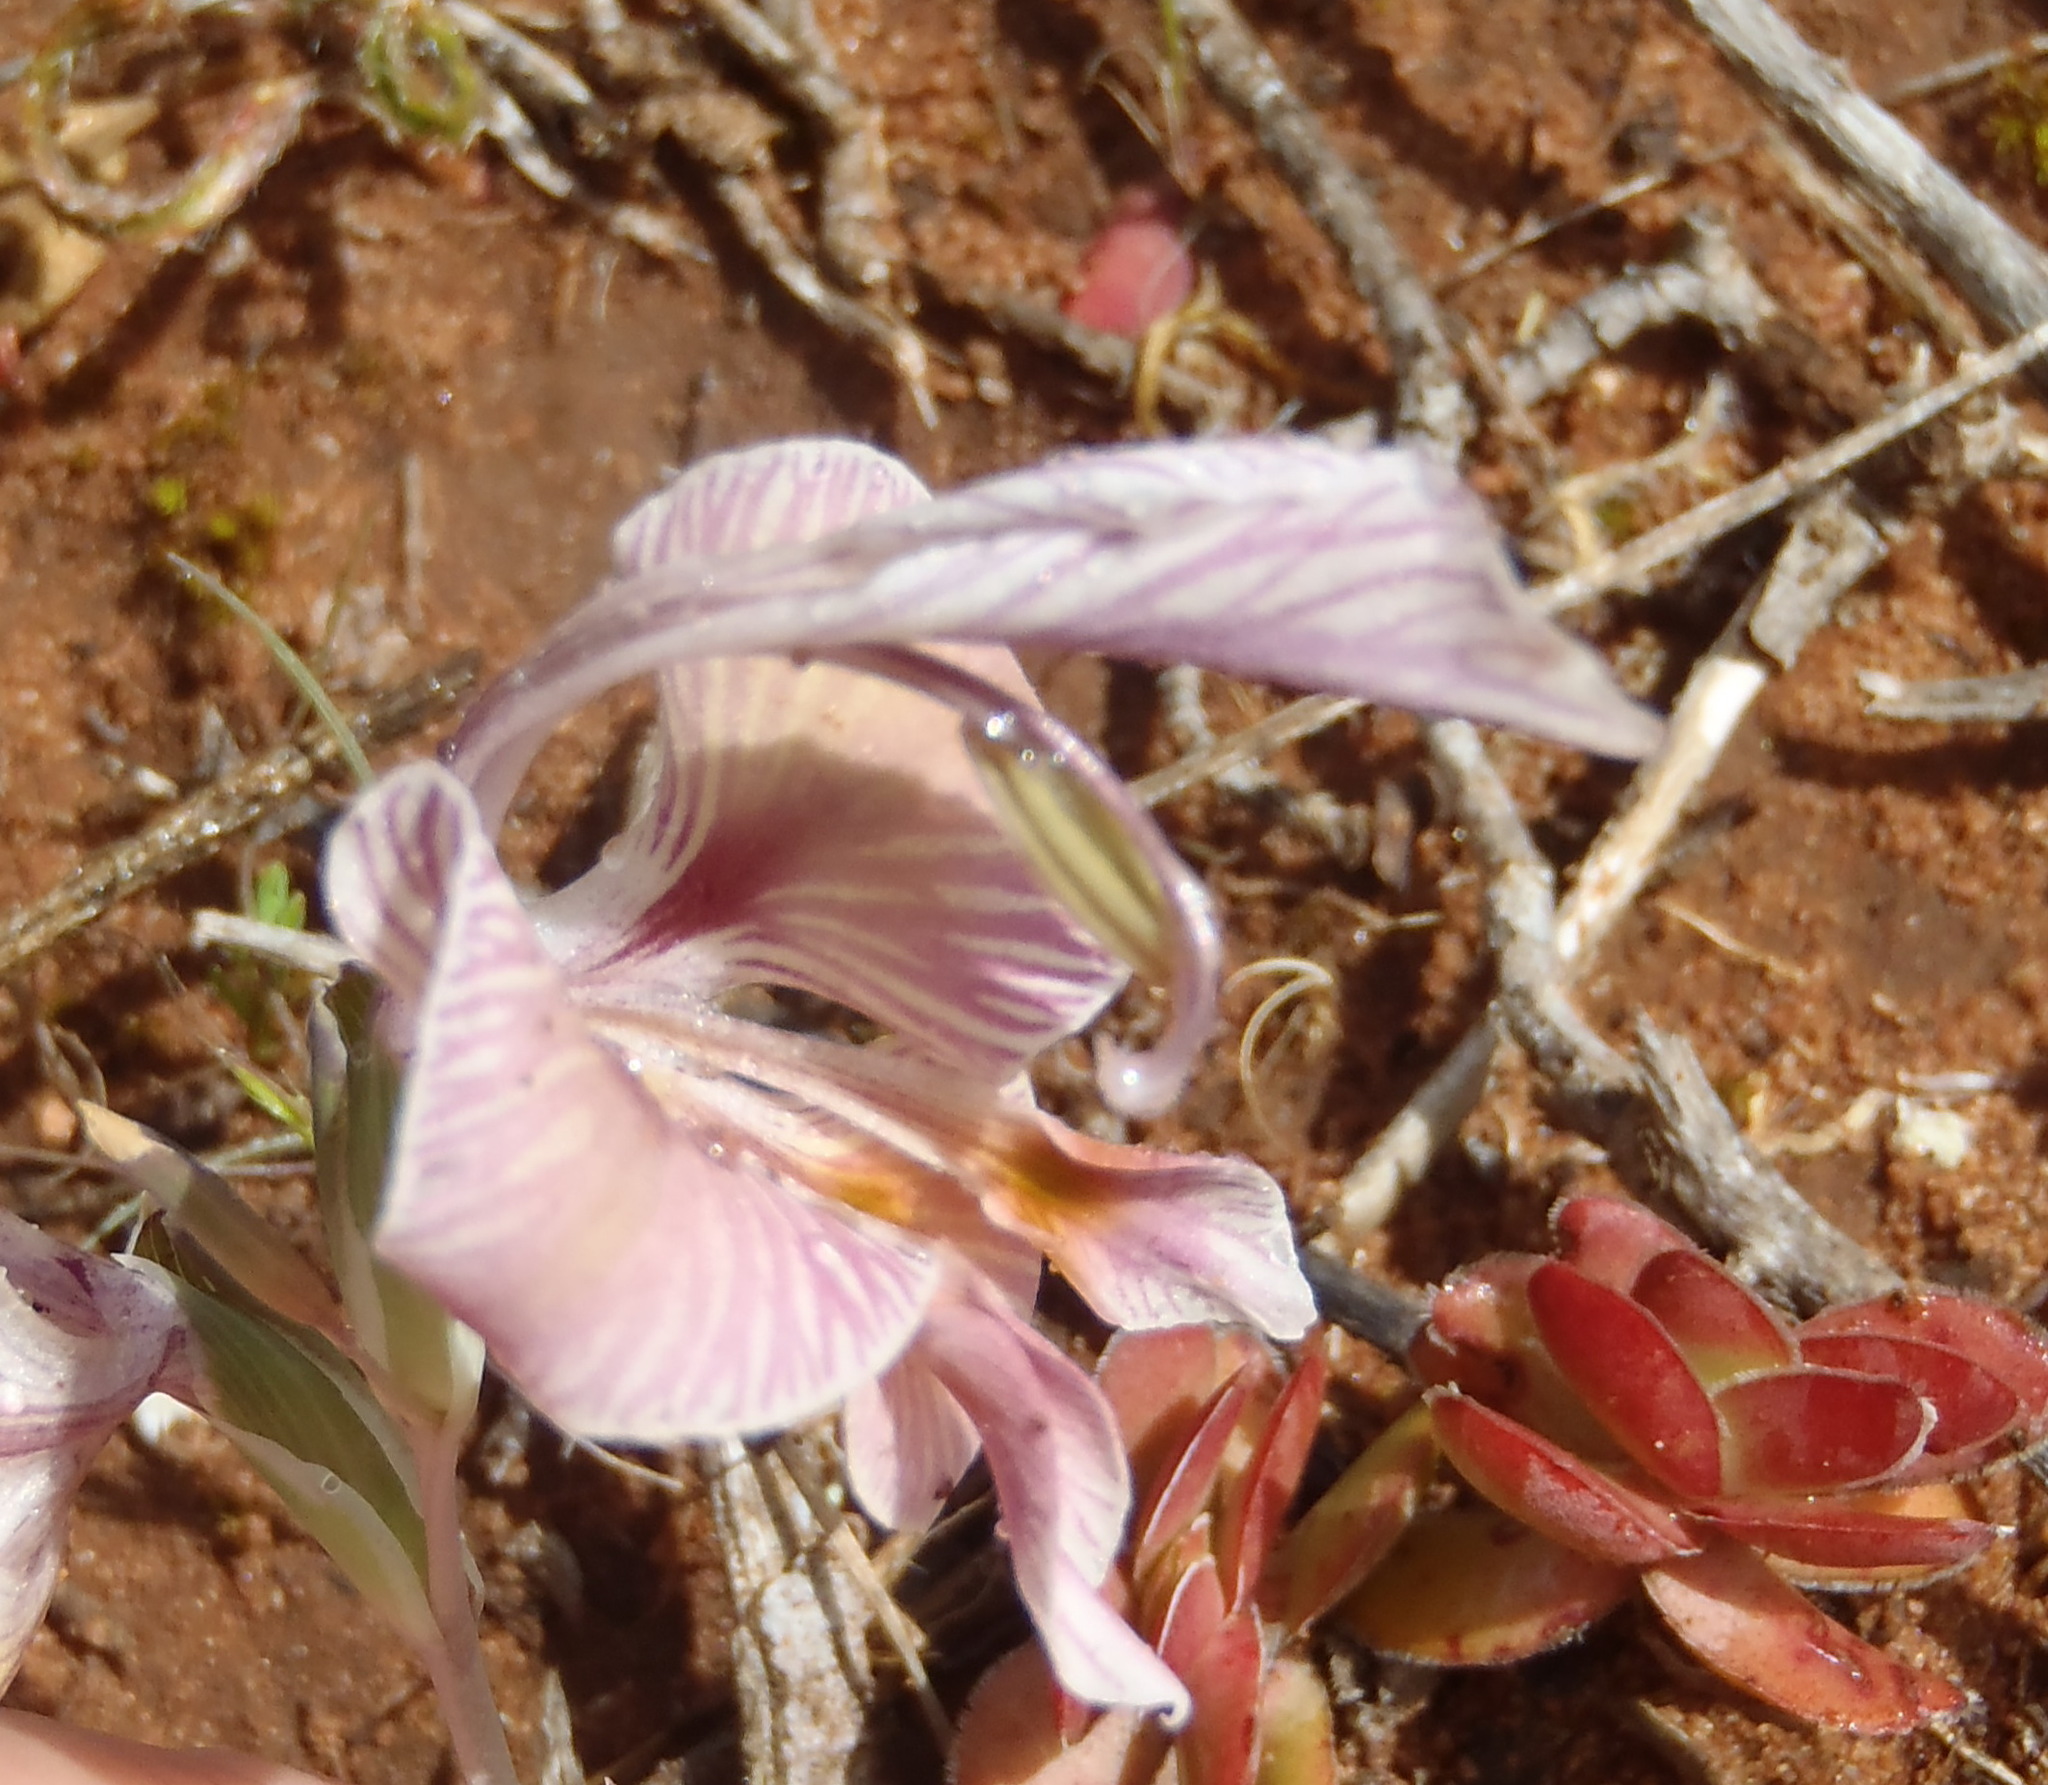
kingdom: Plantae
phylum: Tracheophyta
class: Liliopsida
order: Asparagales
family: Iridaceae
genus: Gladiolus
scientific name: Gladiolus virescens
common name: Yellow kalkoentjie
